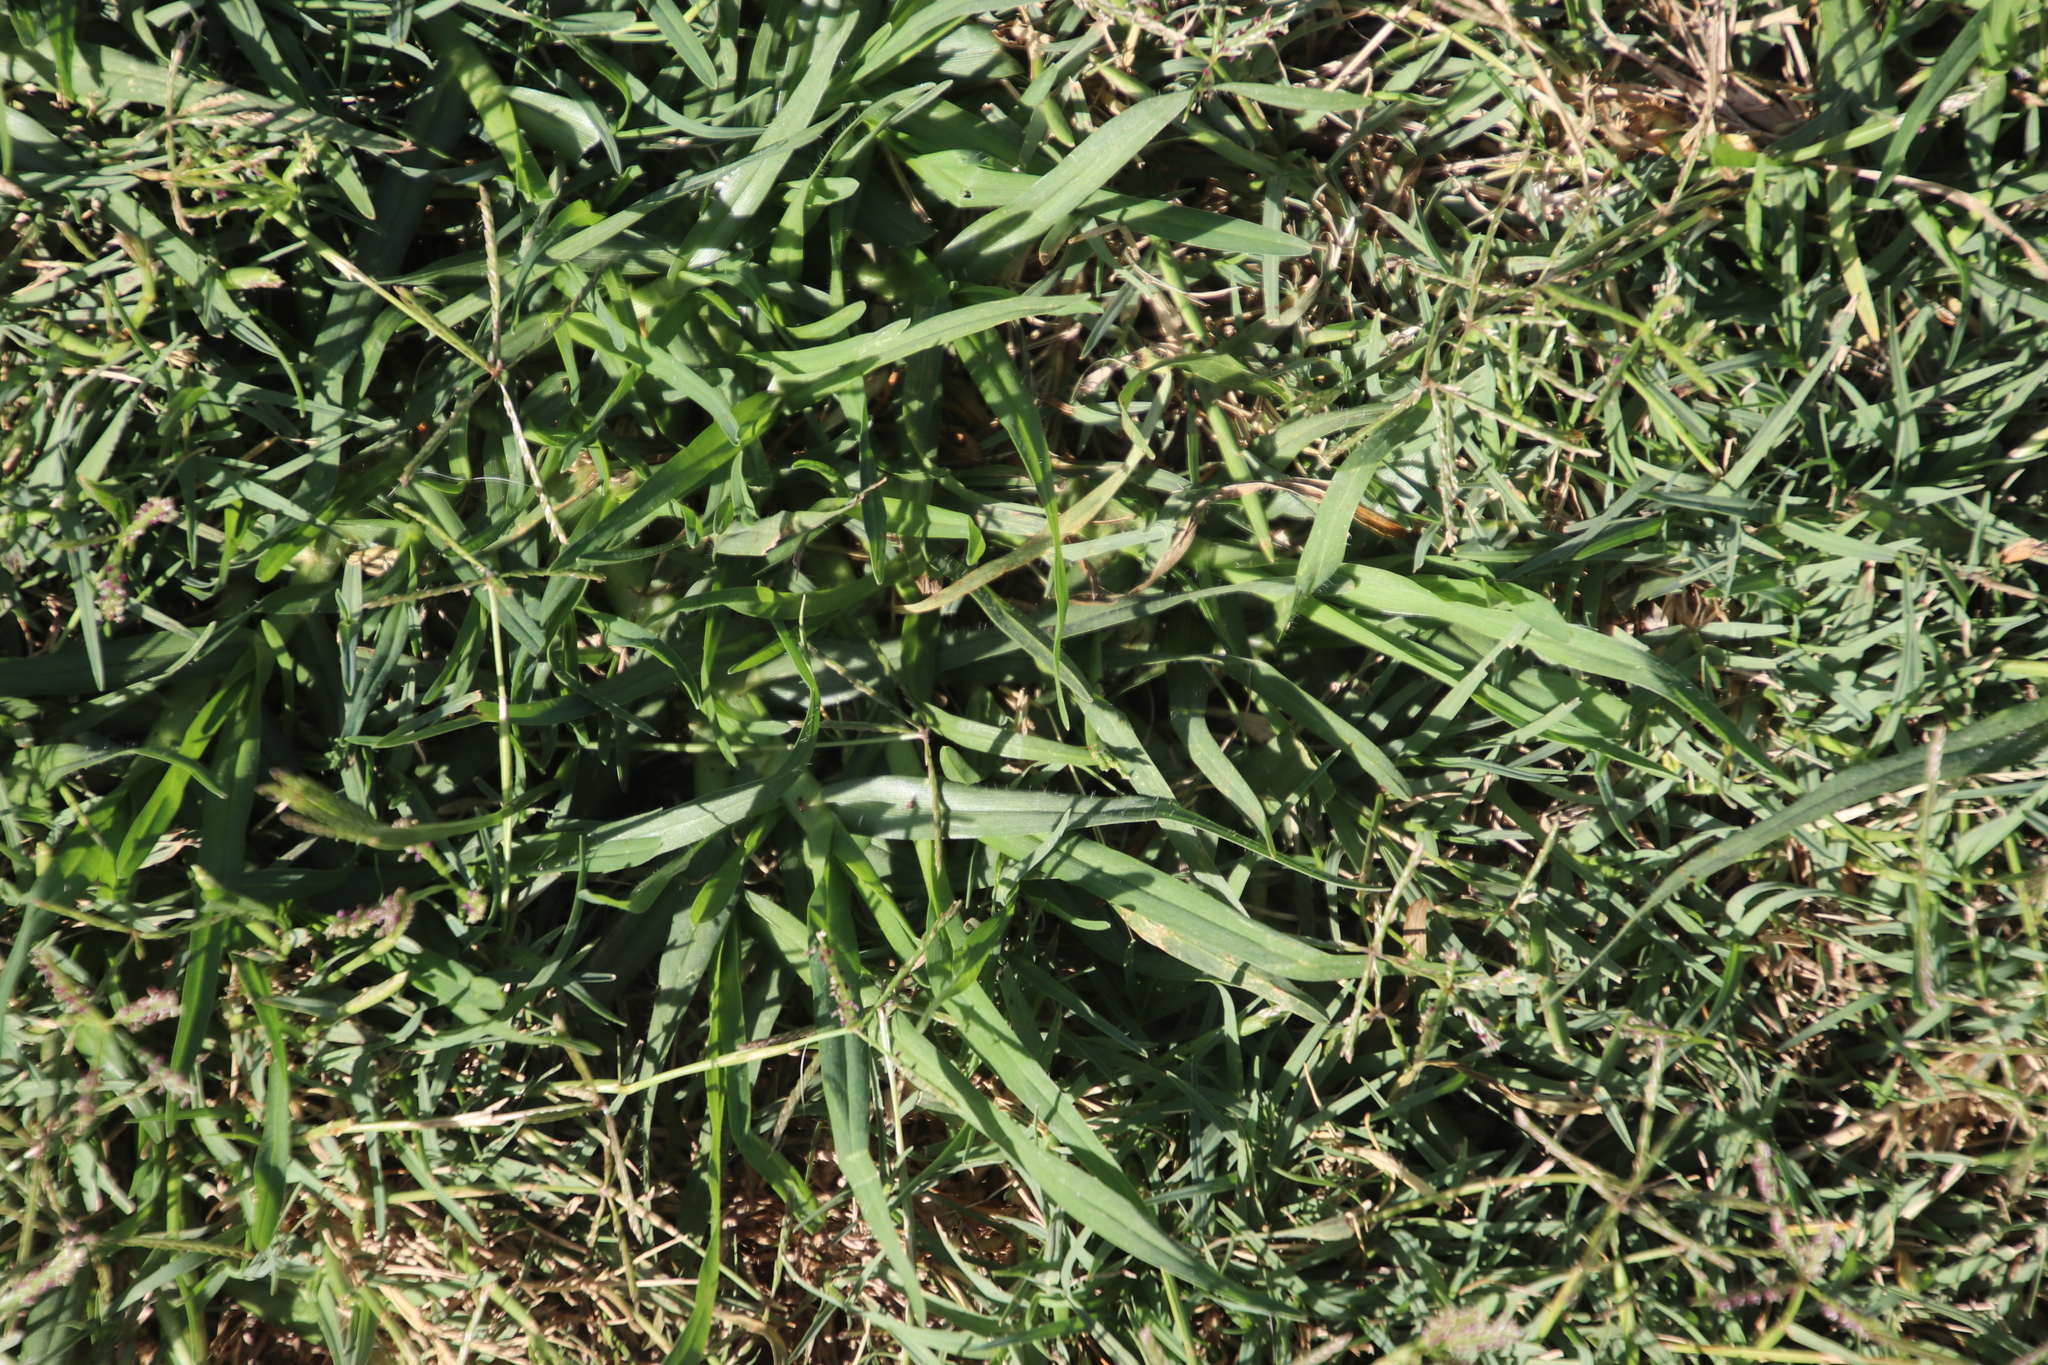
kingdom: Plantae
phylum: Tracheophyta
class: Liliopsida
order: Poales
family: Poaceae
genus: Cenchrus
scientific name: Cenchrus clandestinus
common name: Kikuyugrass
